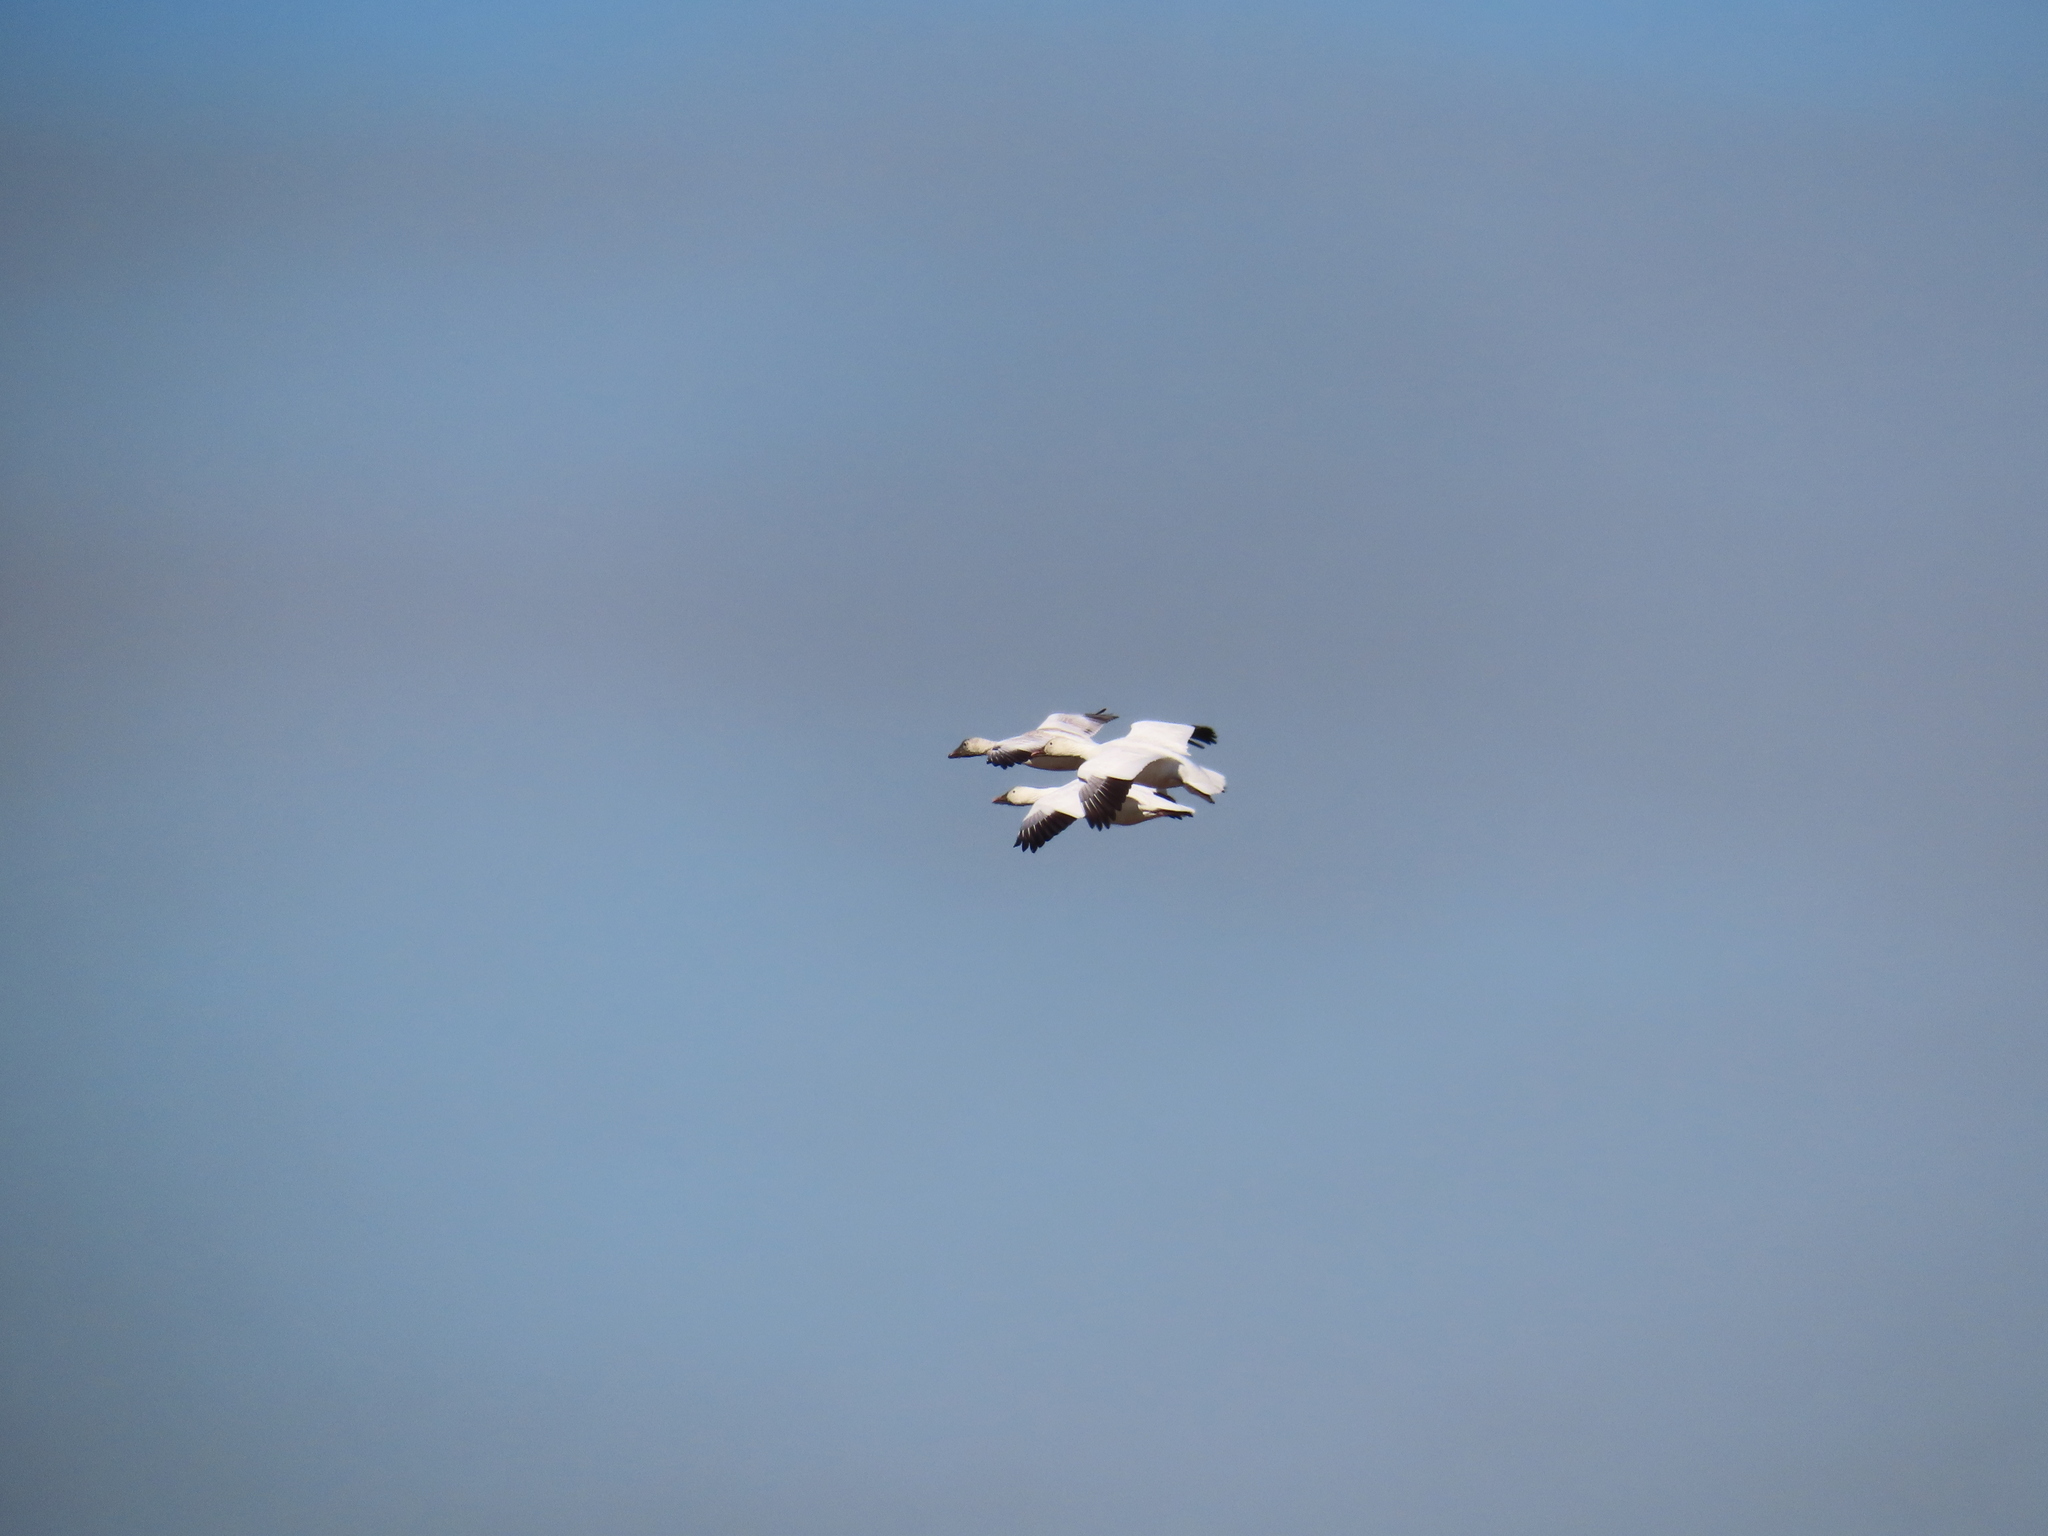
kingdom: Animalia
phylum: Chordata
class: Aves
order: Anseriformes
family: Anatidae
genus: Anser
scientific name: Anser caerulescens
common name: Snow goose
